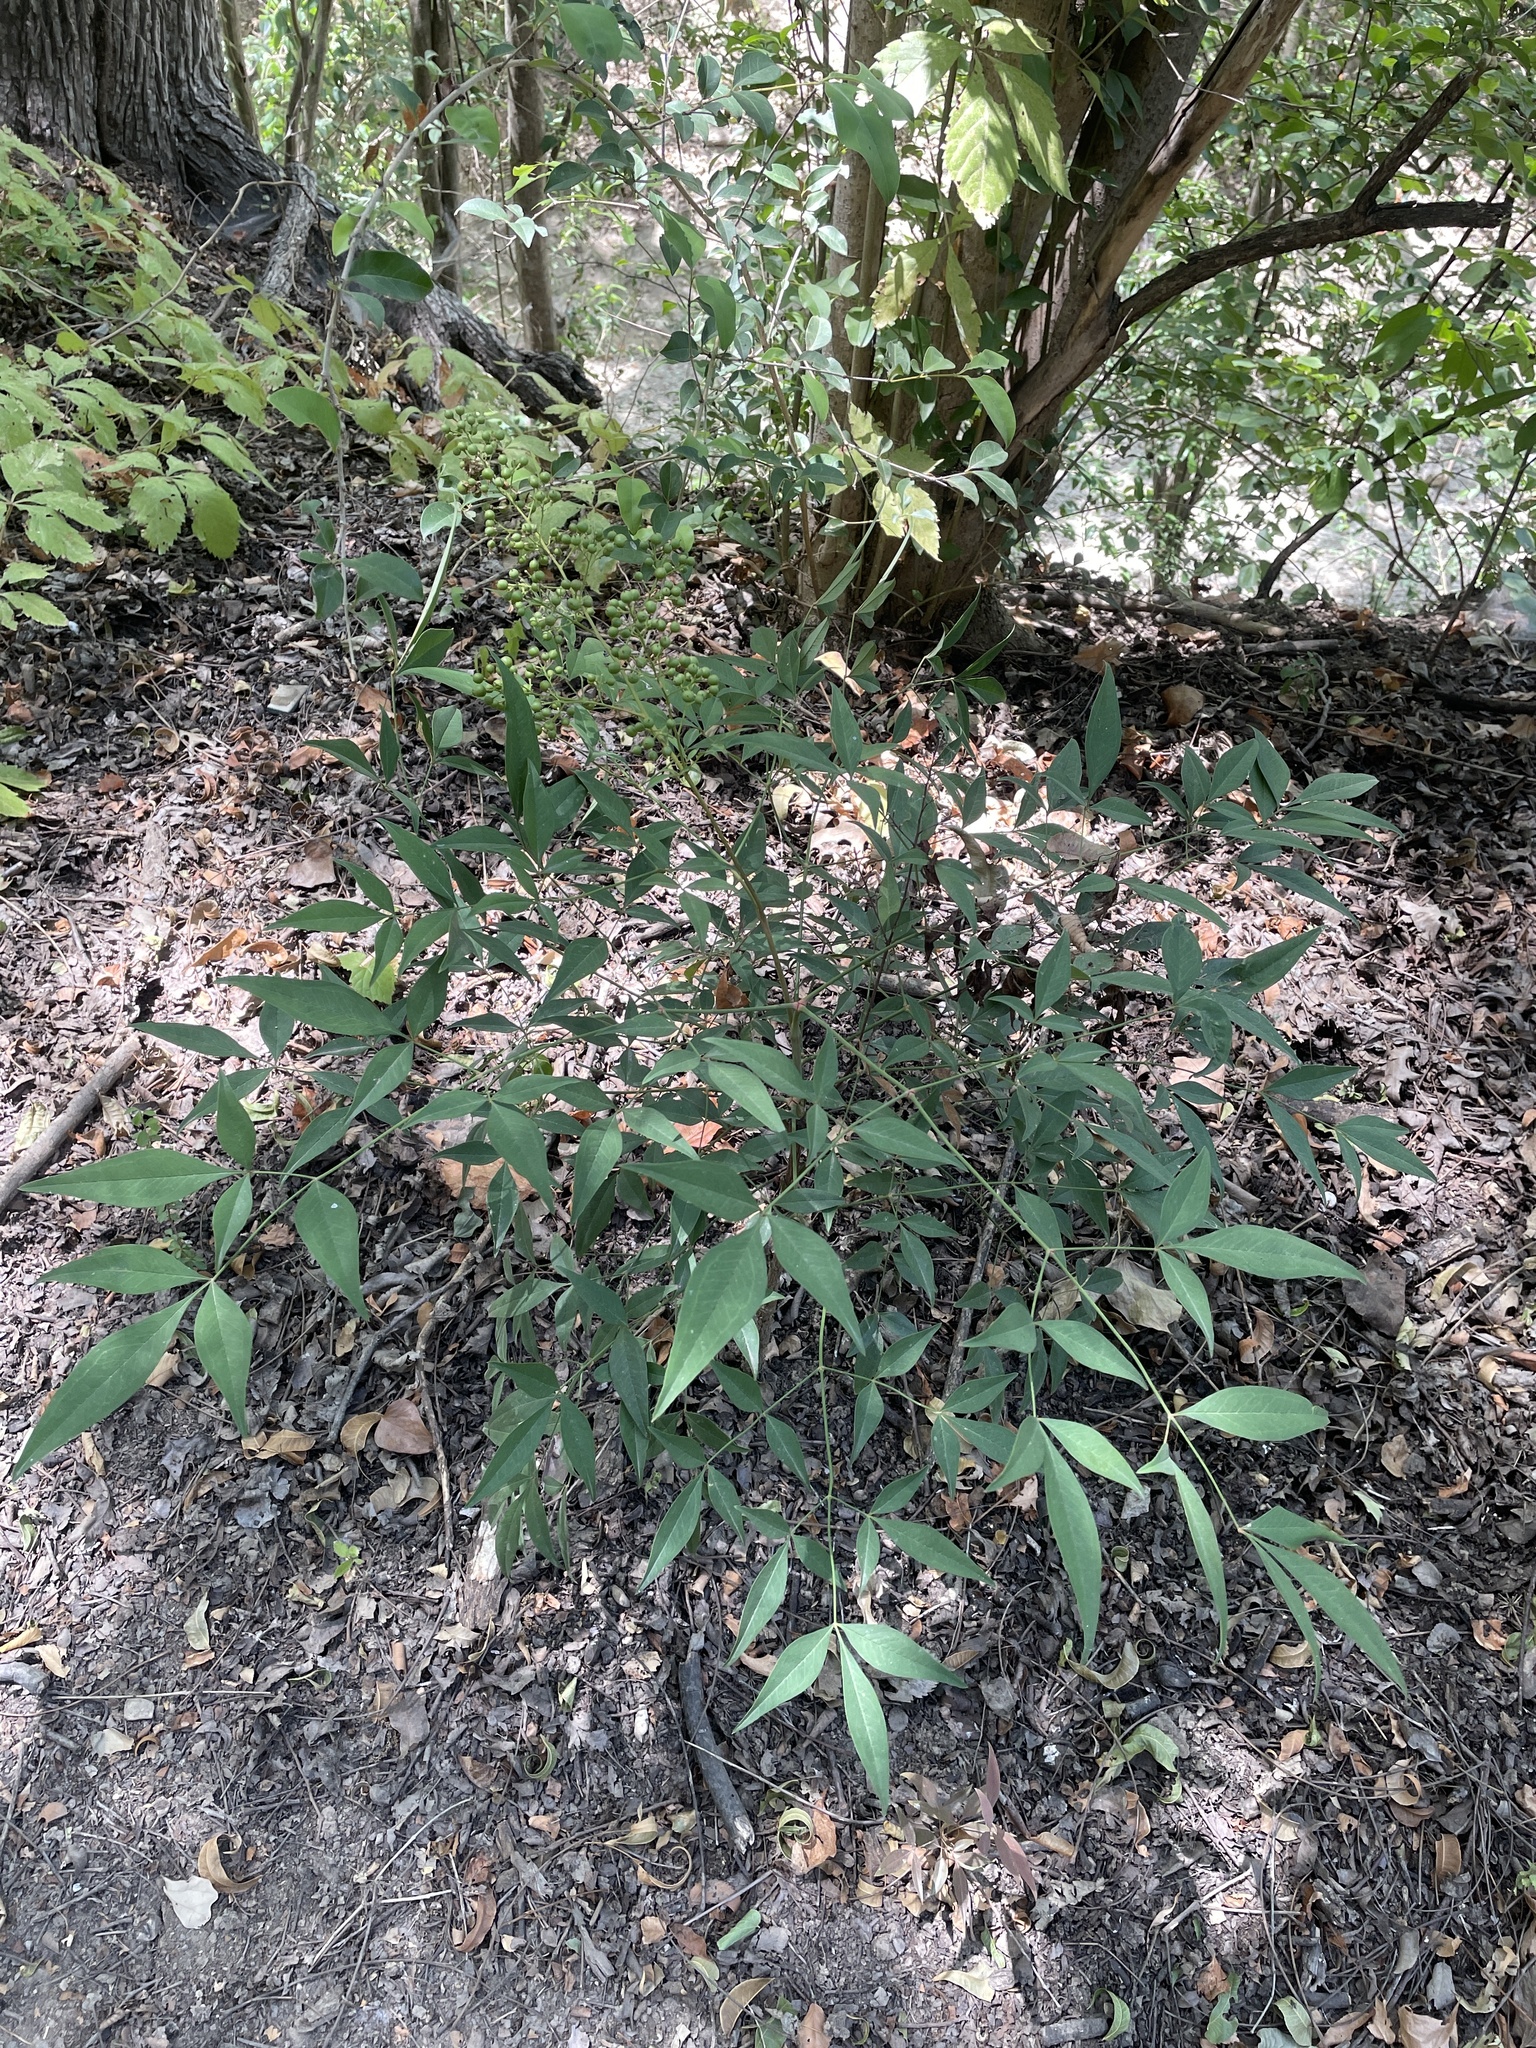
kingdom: Plantae
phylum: Tracheophyta
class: Magnoliopsida
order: Ranunculales
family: Berberidaceae
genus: Nandina
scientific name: Nandina domestica
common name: Sacred bamboo
